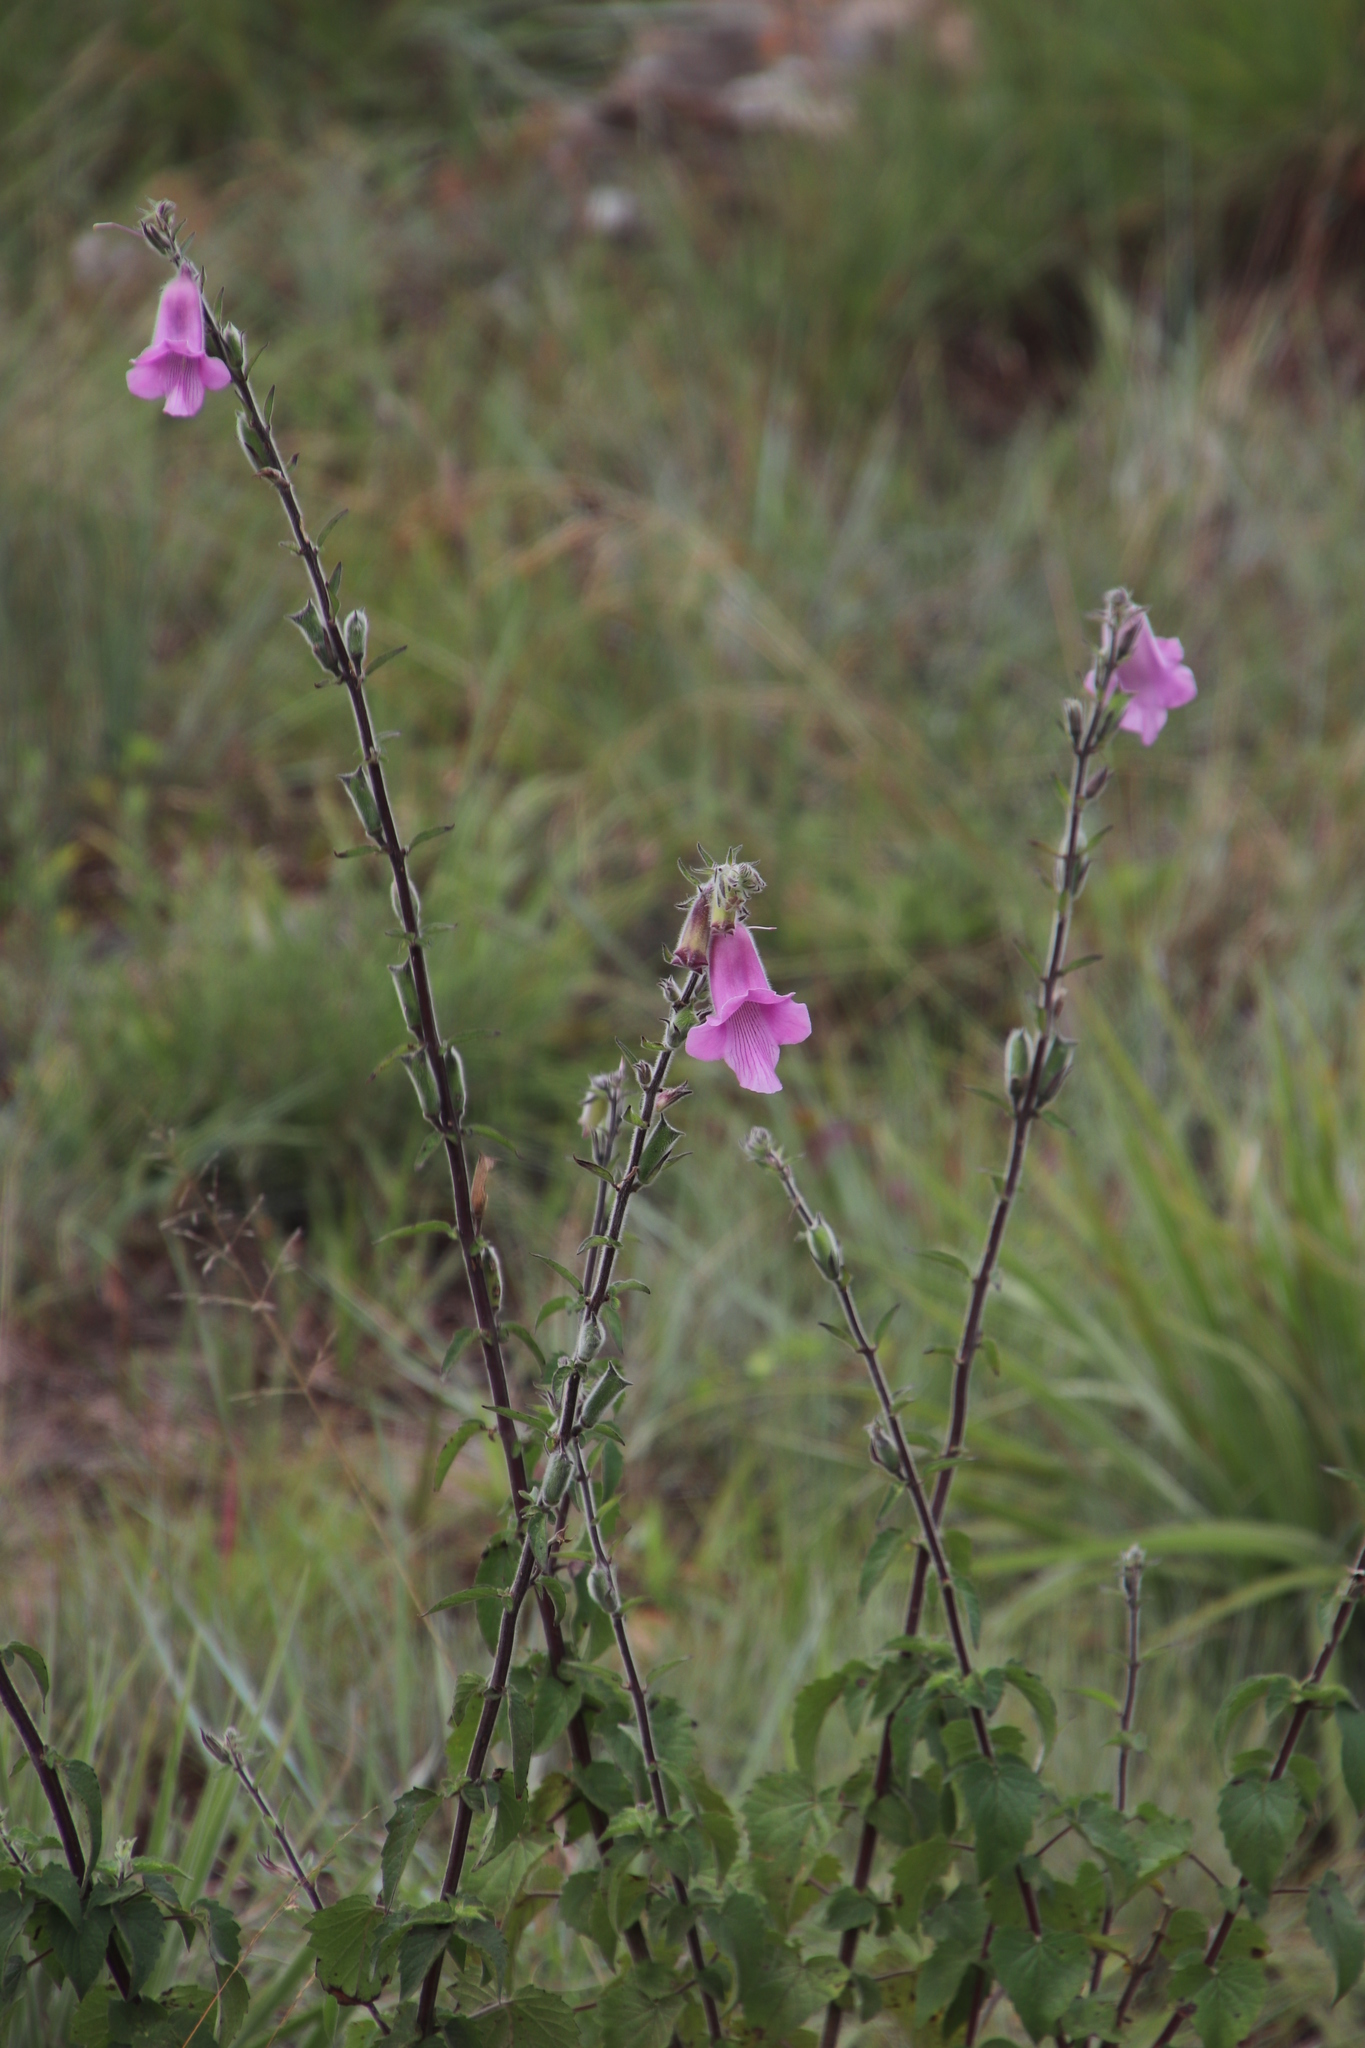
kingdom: Plantae
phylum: Tracheophyta
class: Magnoliopsida
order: Lamiales
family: Pedaliaceae
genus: Sesamum
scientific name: Sesamum trilobum
